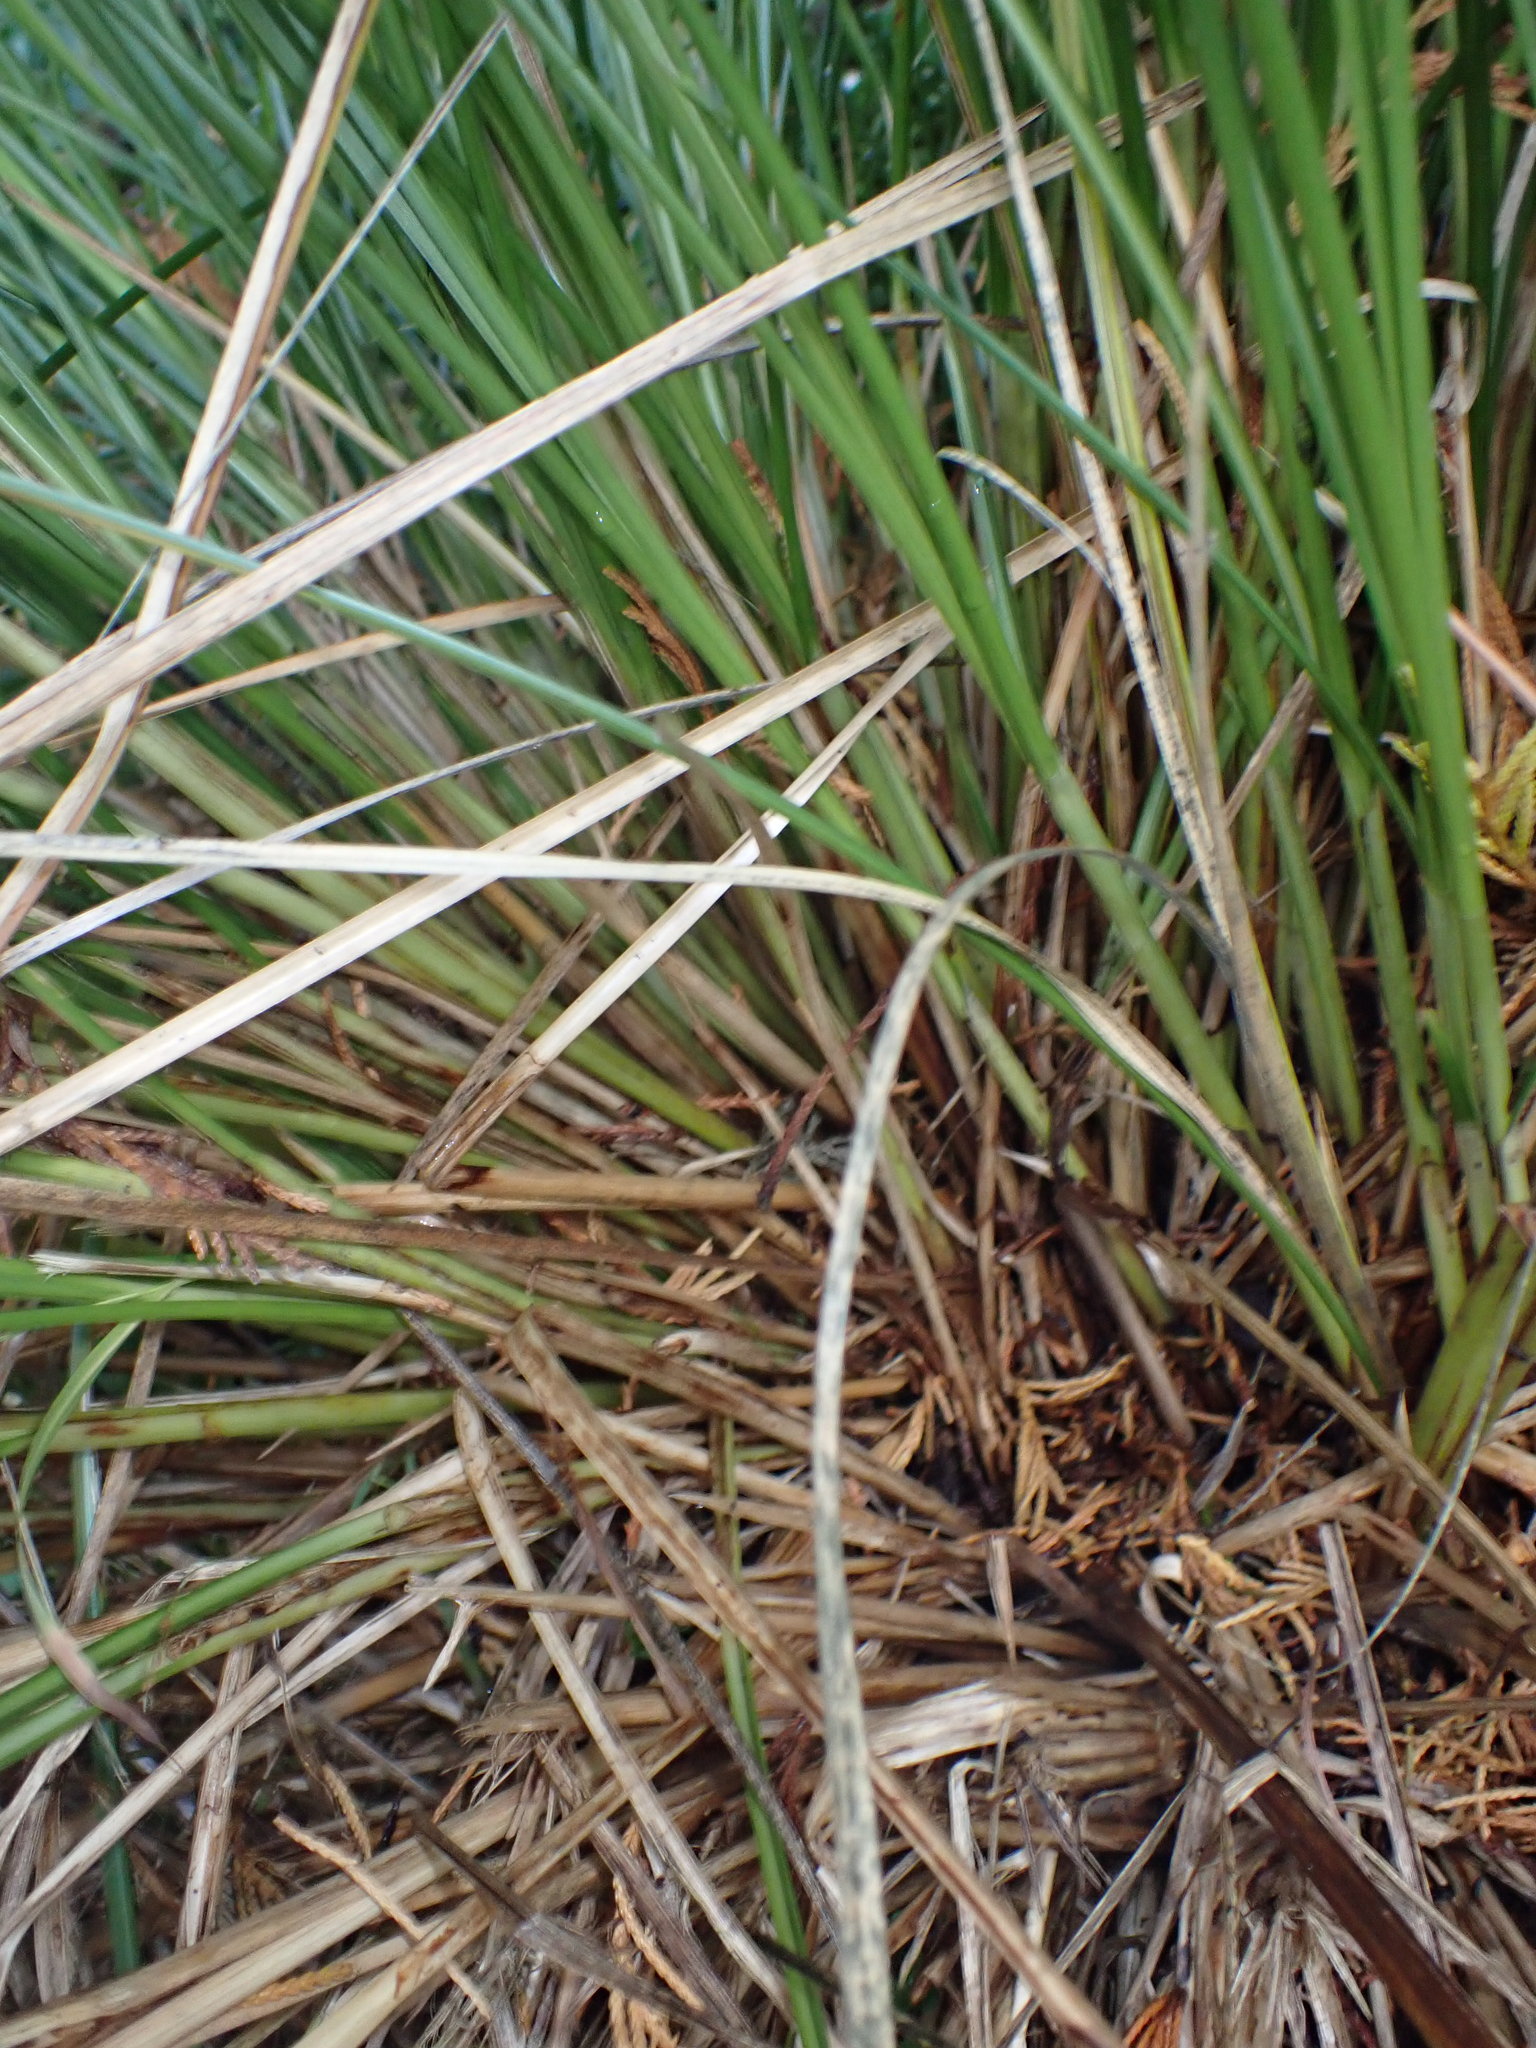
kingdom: Plantae
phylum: Tracheophyta
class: Liliopsida
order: Poales
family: Cyperaceae
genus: Carex
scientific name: Carex secta
